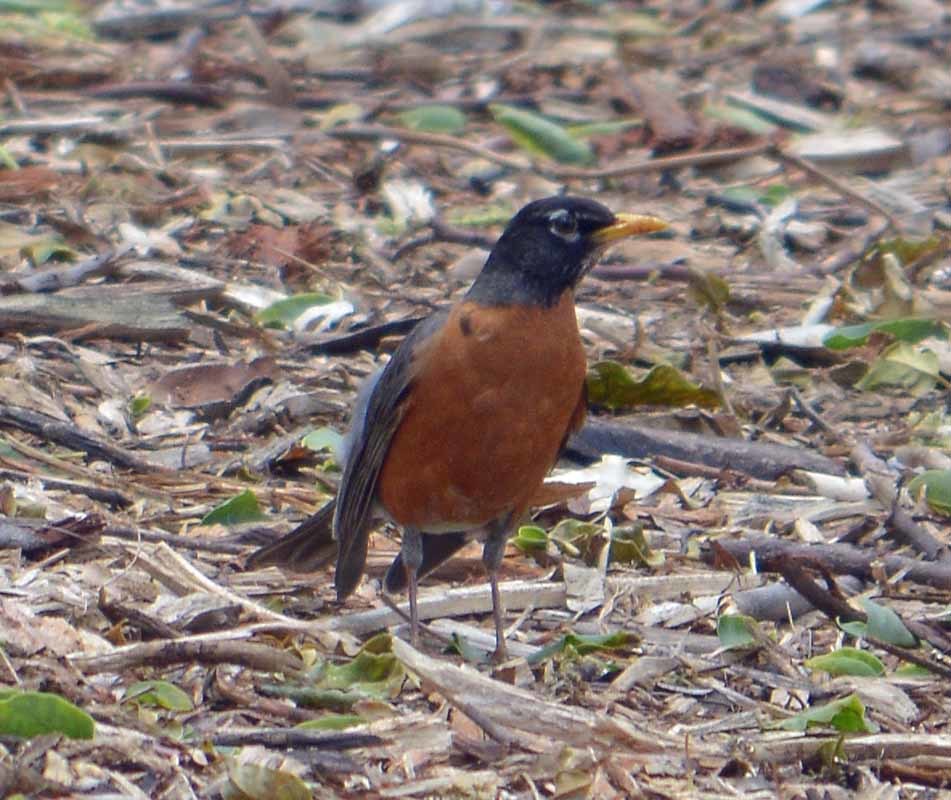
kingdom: Animalia
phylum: Chordata
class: Aves
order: Passeriformes
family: Turdidae
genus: Turdus
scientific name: Turdus migratorius
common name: American robin
